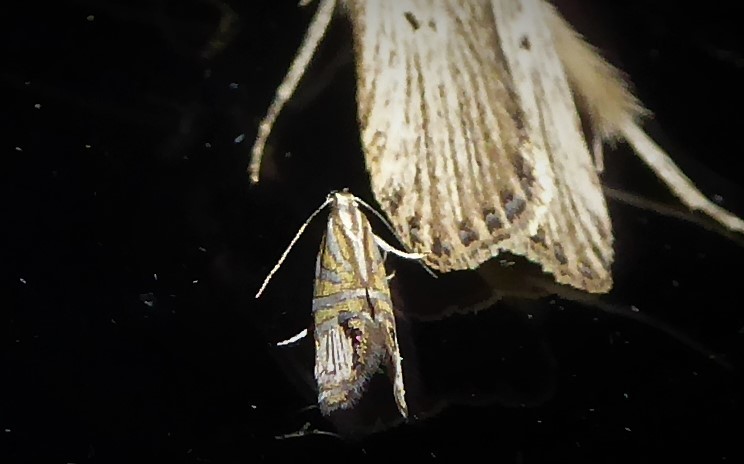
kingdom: Animalia
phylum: Arthropoda
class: Insecta
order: Lepidoptera
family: Glyphipterigidae
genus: Glyphipterix
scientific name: Glyphipterix triselena
